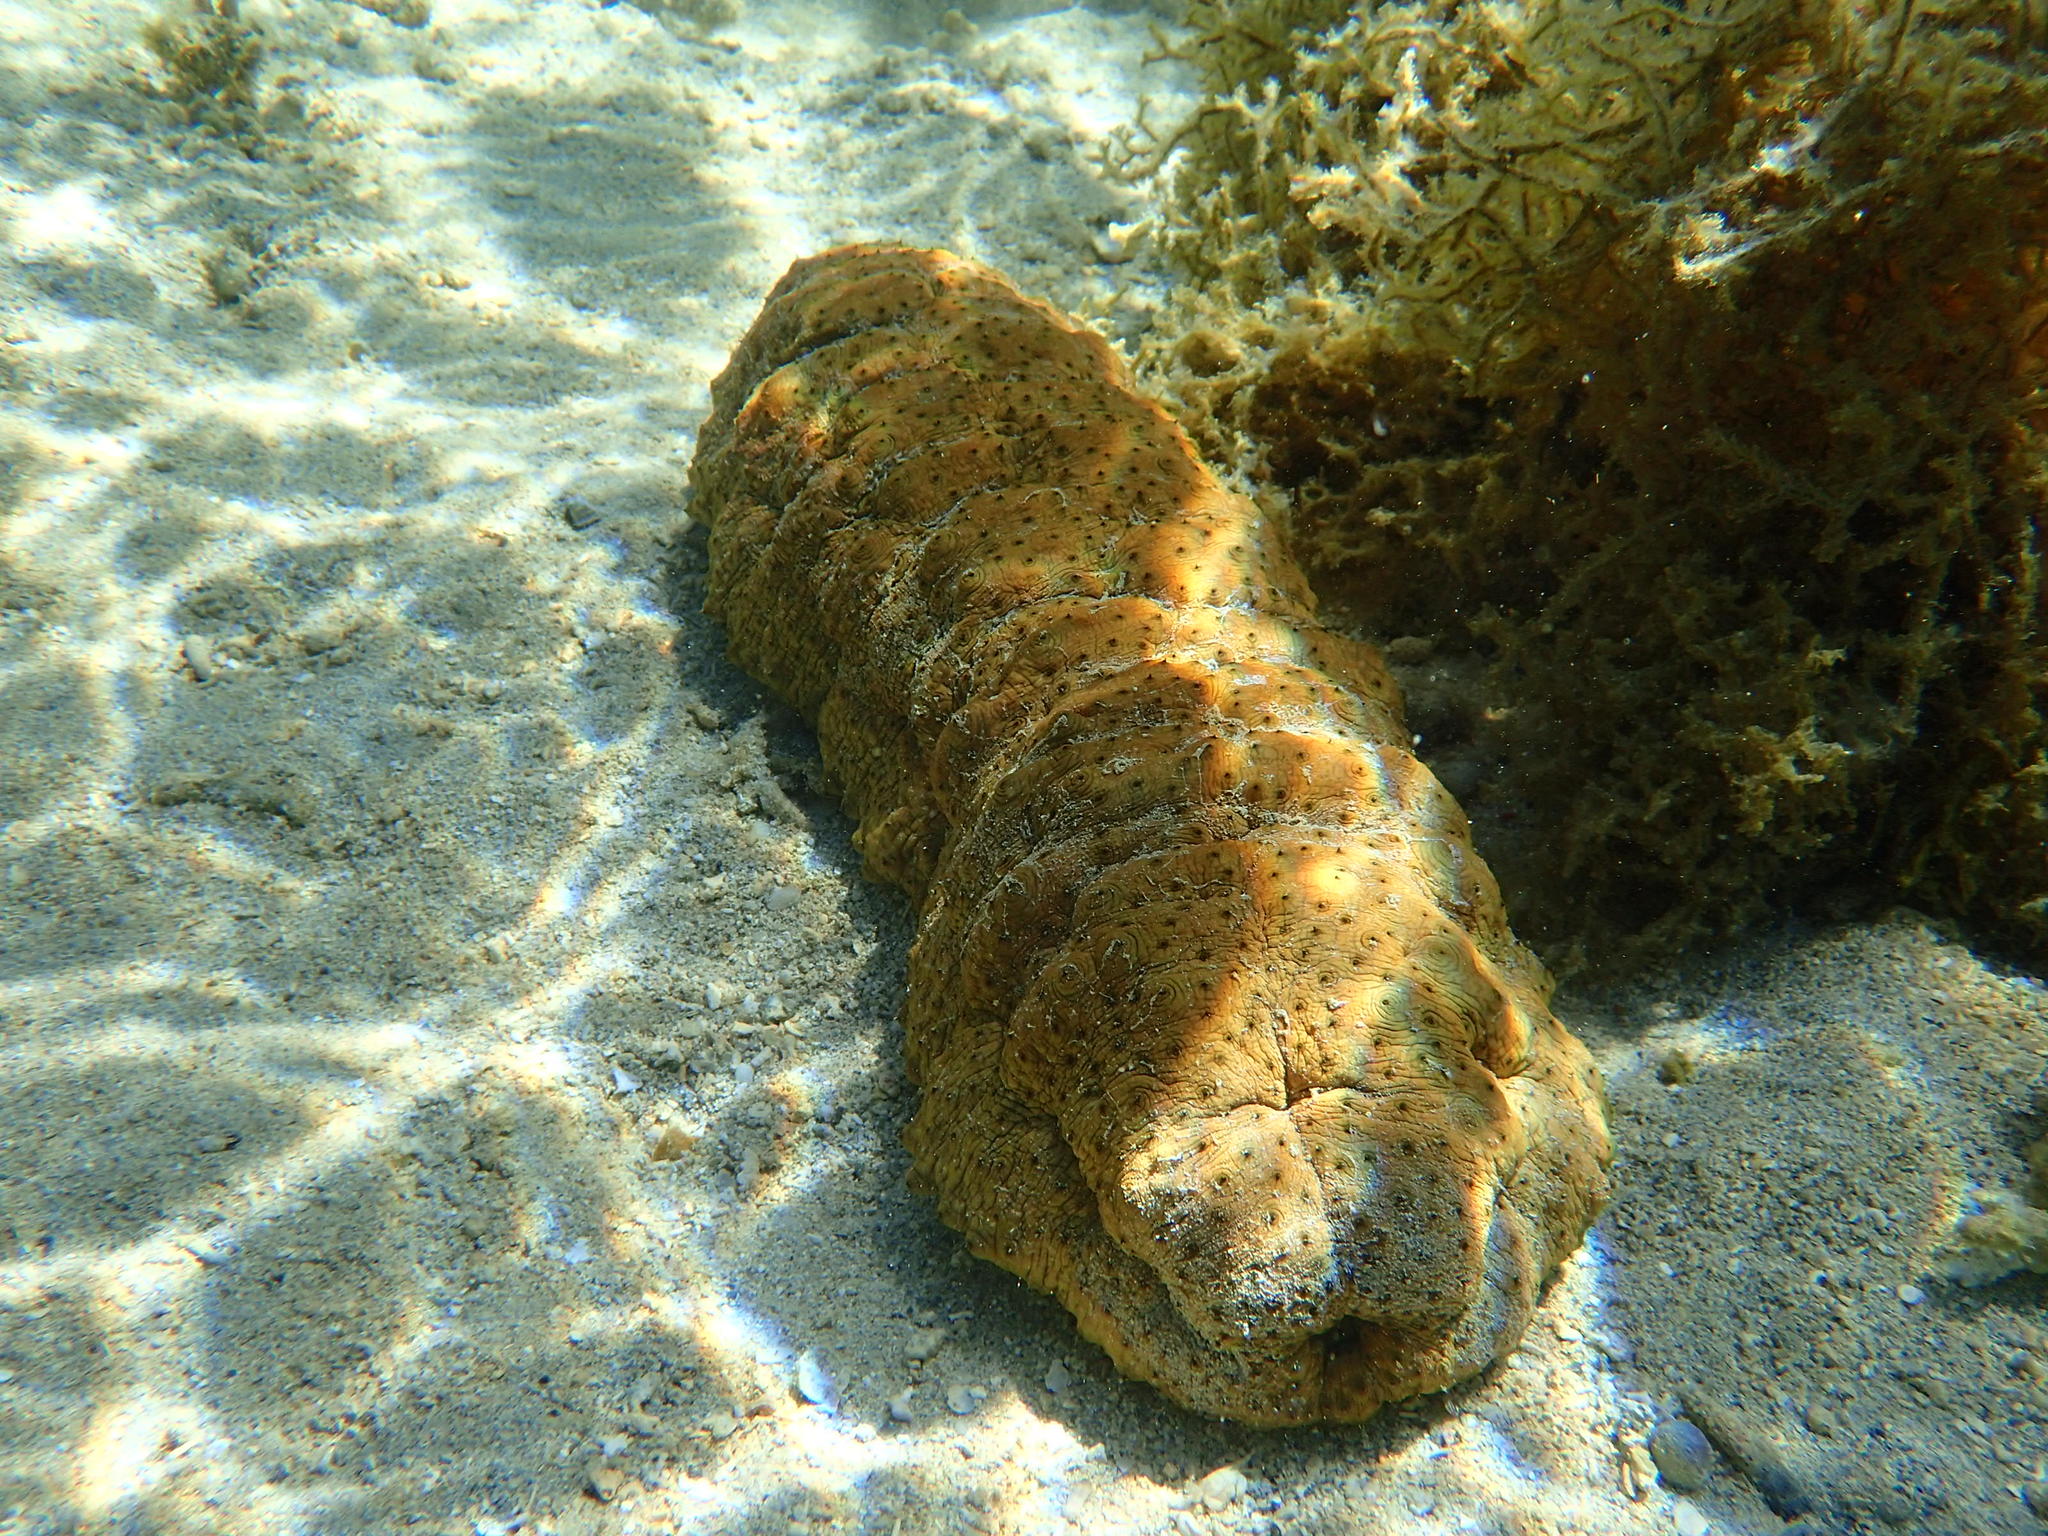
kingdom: Animalia
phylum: Echinodermata
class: Holothuroidea
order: Synallactida
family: Stichopodidae
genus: Stichopus
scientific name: Stichopus herrmanni
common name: Curryfish
